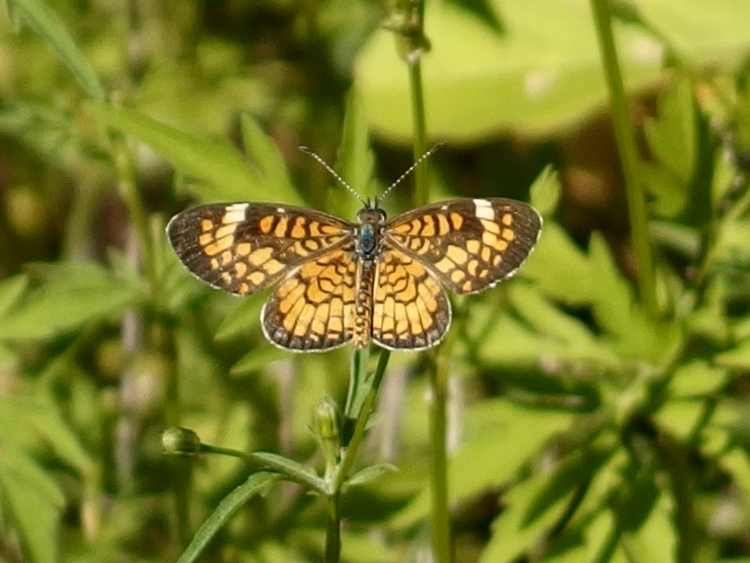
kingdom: Animalia
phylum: Arthropoda
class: Insecta
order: Lepidoptera
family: Nymphalidae
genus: Dymasia
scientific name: Dymasia dymas
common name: Tiny checkerspot
